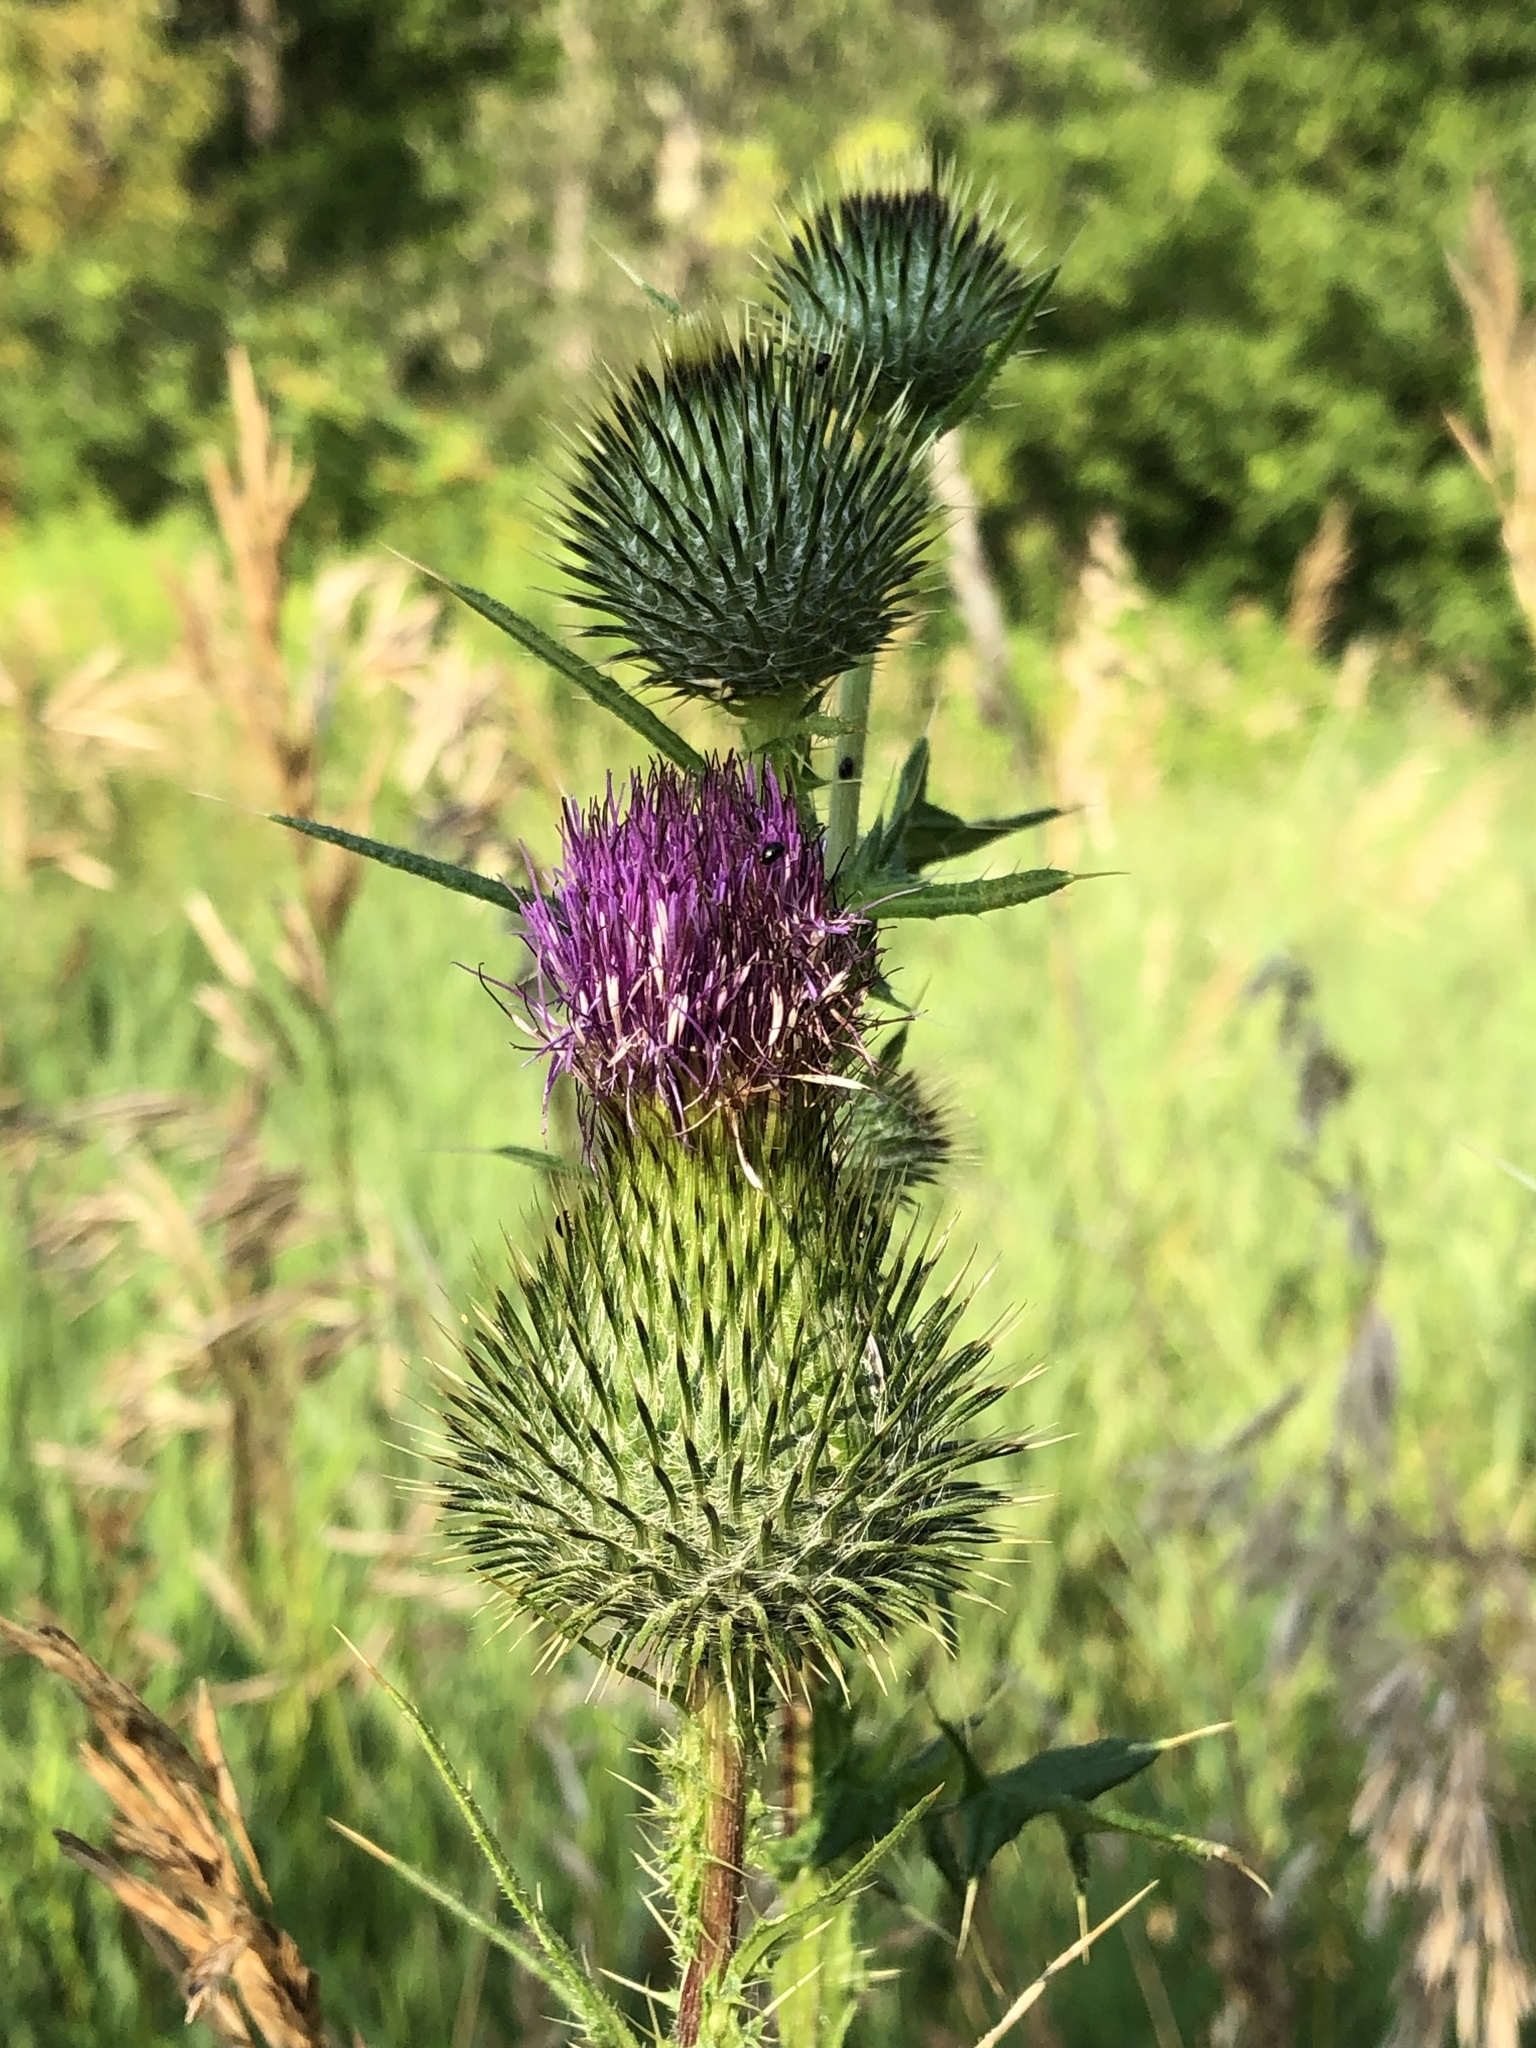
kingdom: Plantae
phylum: Tracheophyta
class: Magnoliopsida
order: Asterales
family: Asteraceae
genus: Cirsium
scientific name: Cirsium vulgare
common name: Bull thistle
